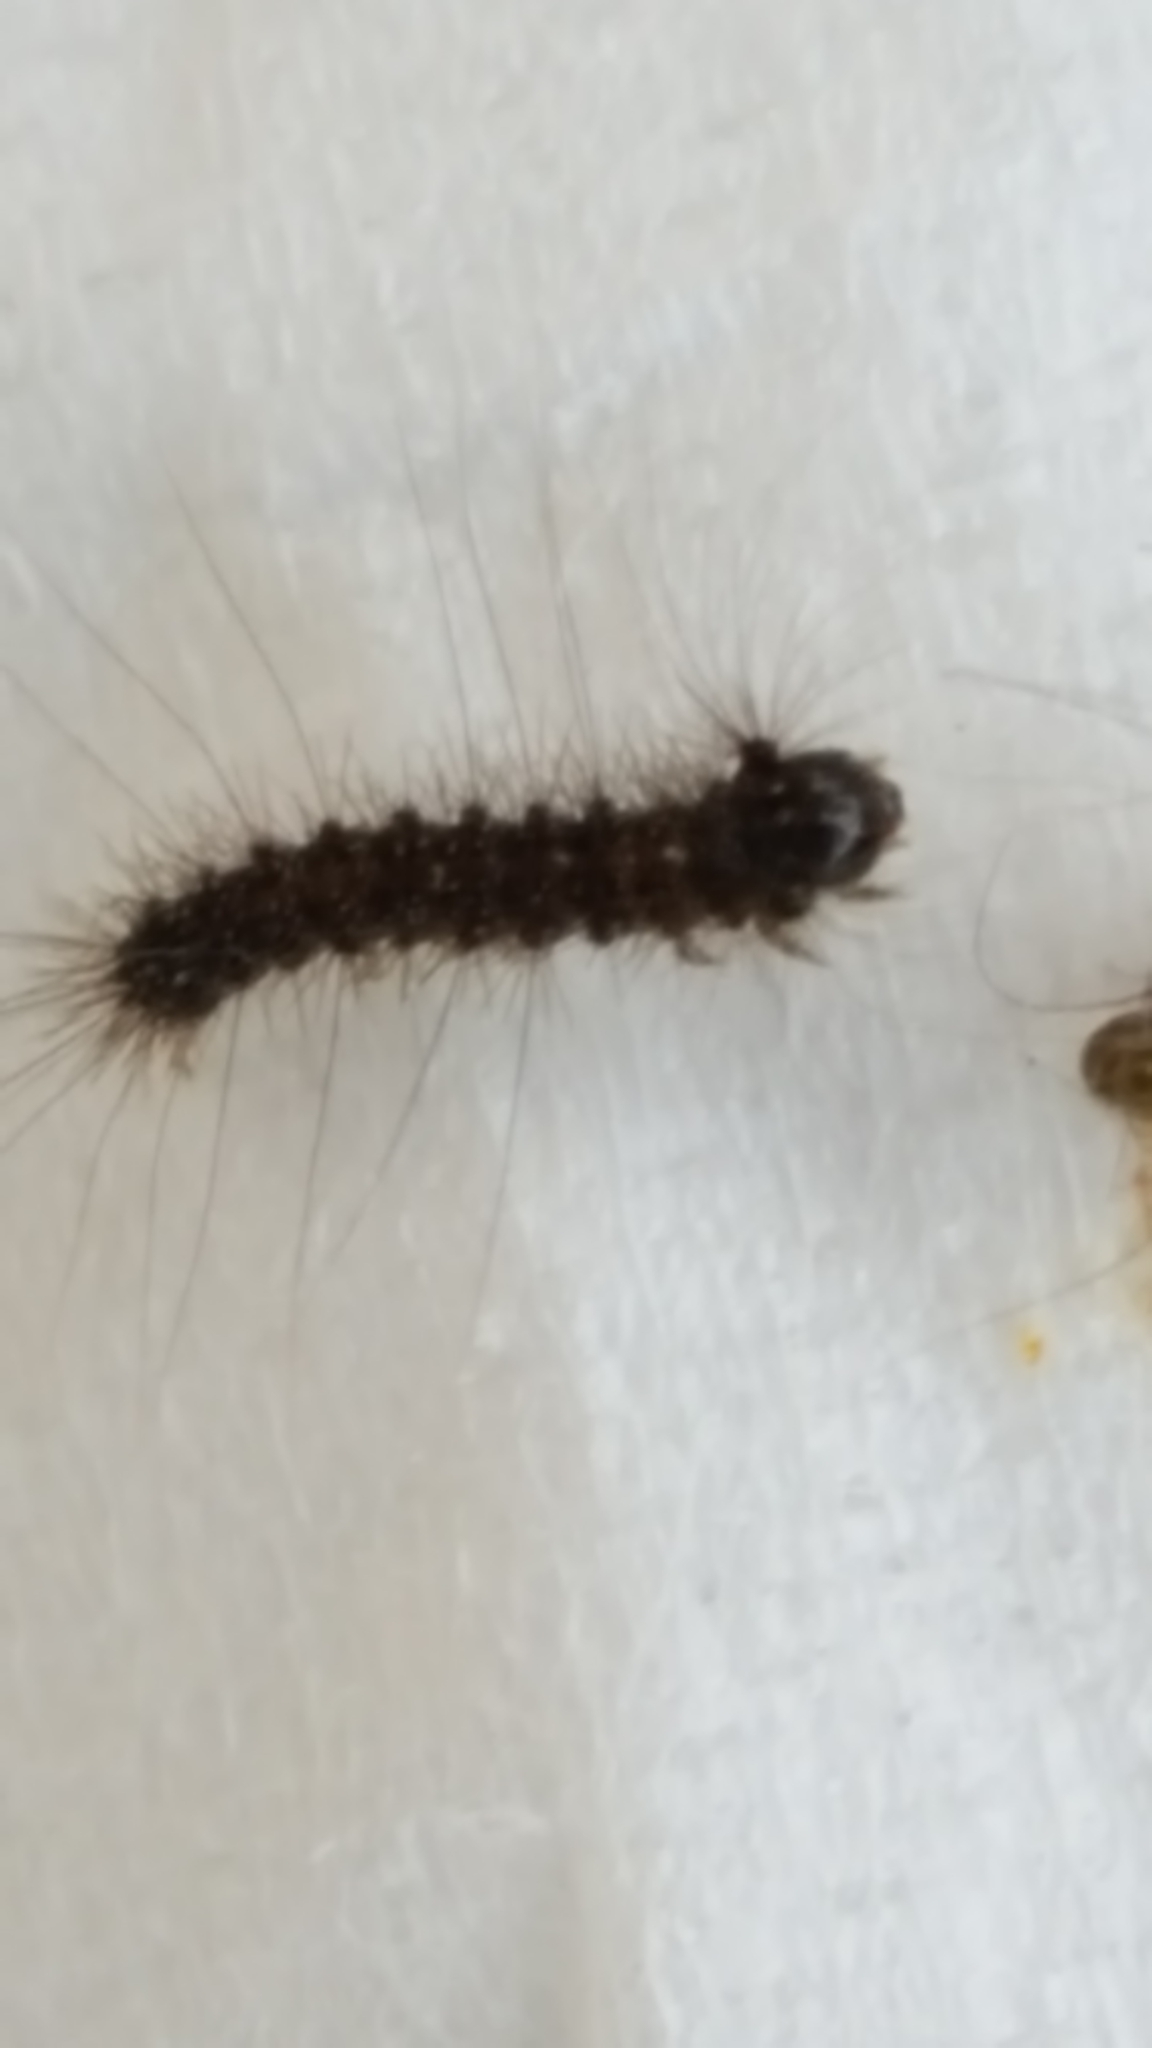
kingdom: Animalia
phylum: Arthropoda
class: Insecta
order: Lepidoptera
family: Erebidae
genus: Lymantria
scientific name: Lymantria dispar
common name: Gypsy moth
